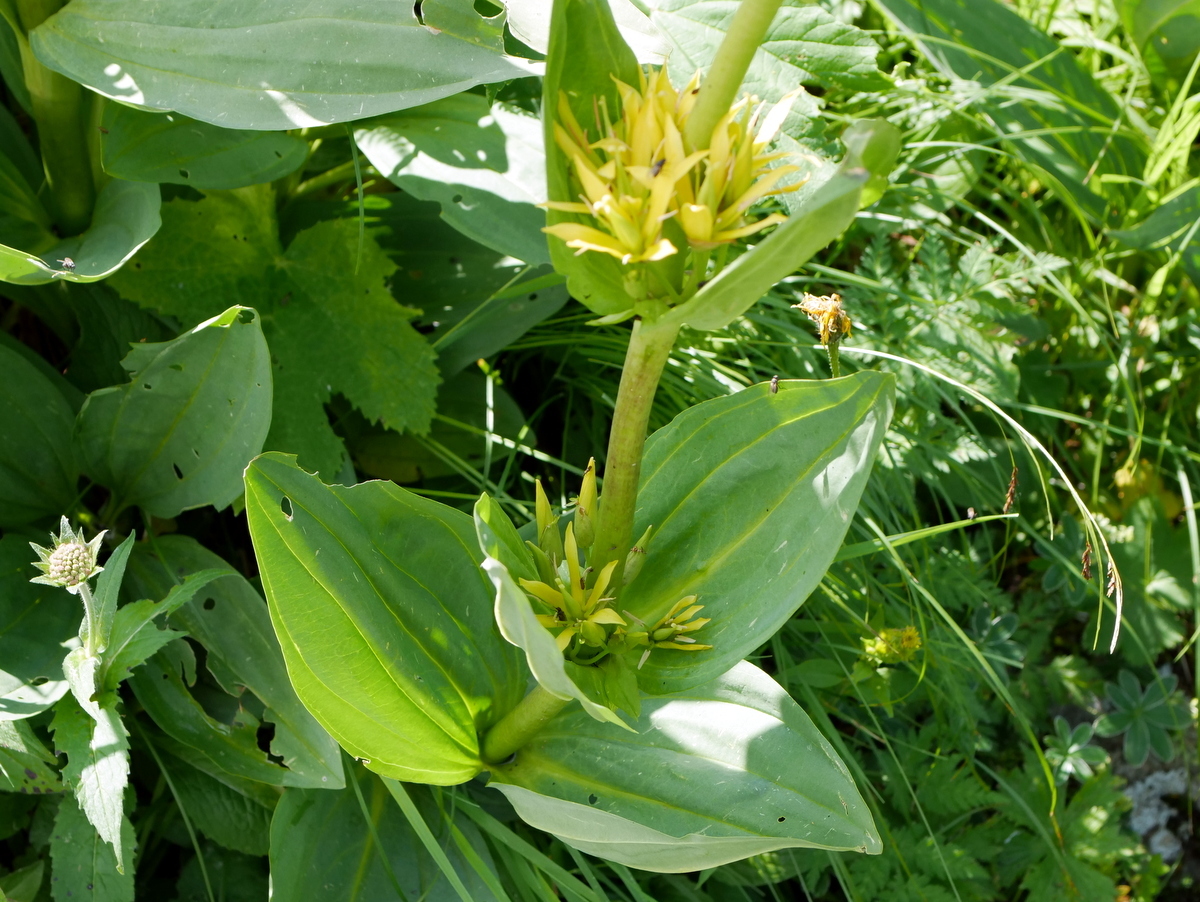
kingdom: Plantae
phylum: Tracheophyta
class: Magnoliopsida
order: Gentianales
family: Gentianaceae
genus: Gentiana
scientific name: Gentiana lutea
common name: Great yellow gentian
